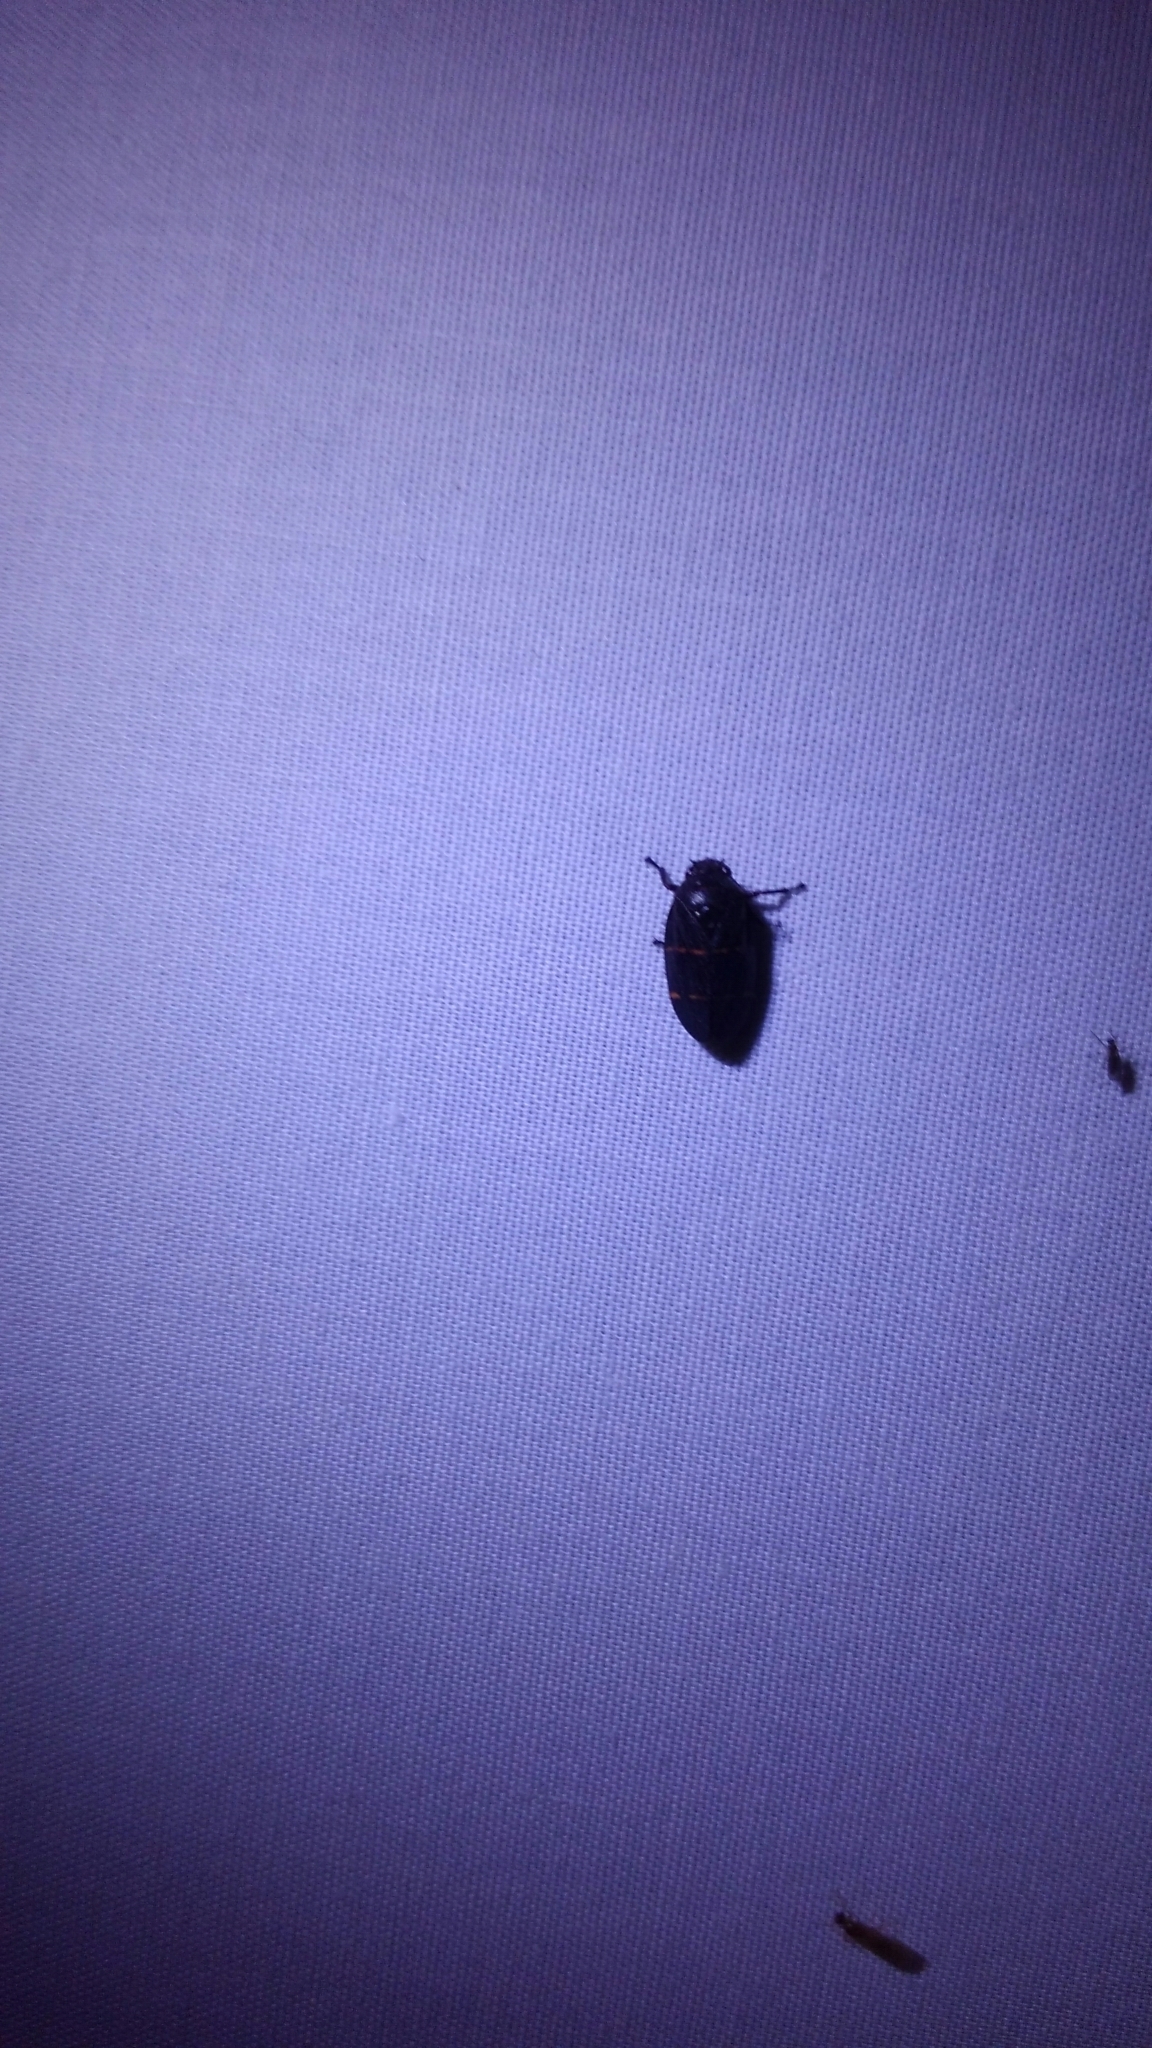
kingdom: Animalia
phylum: Arthropoda
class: Insecta
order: Hemiptera
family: Cercopidae
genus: Prosapia
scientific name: Prosapia bicincta
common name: Twolined spittlebug
